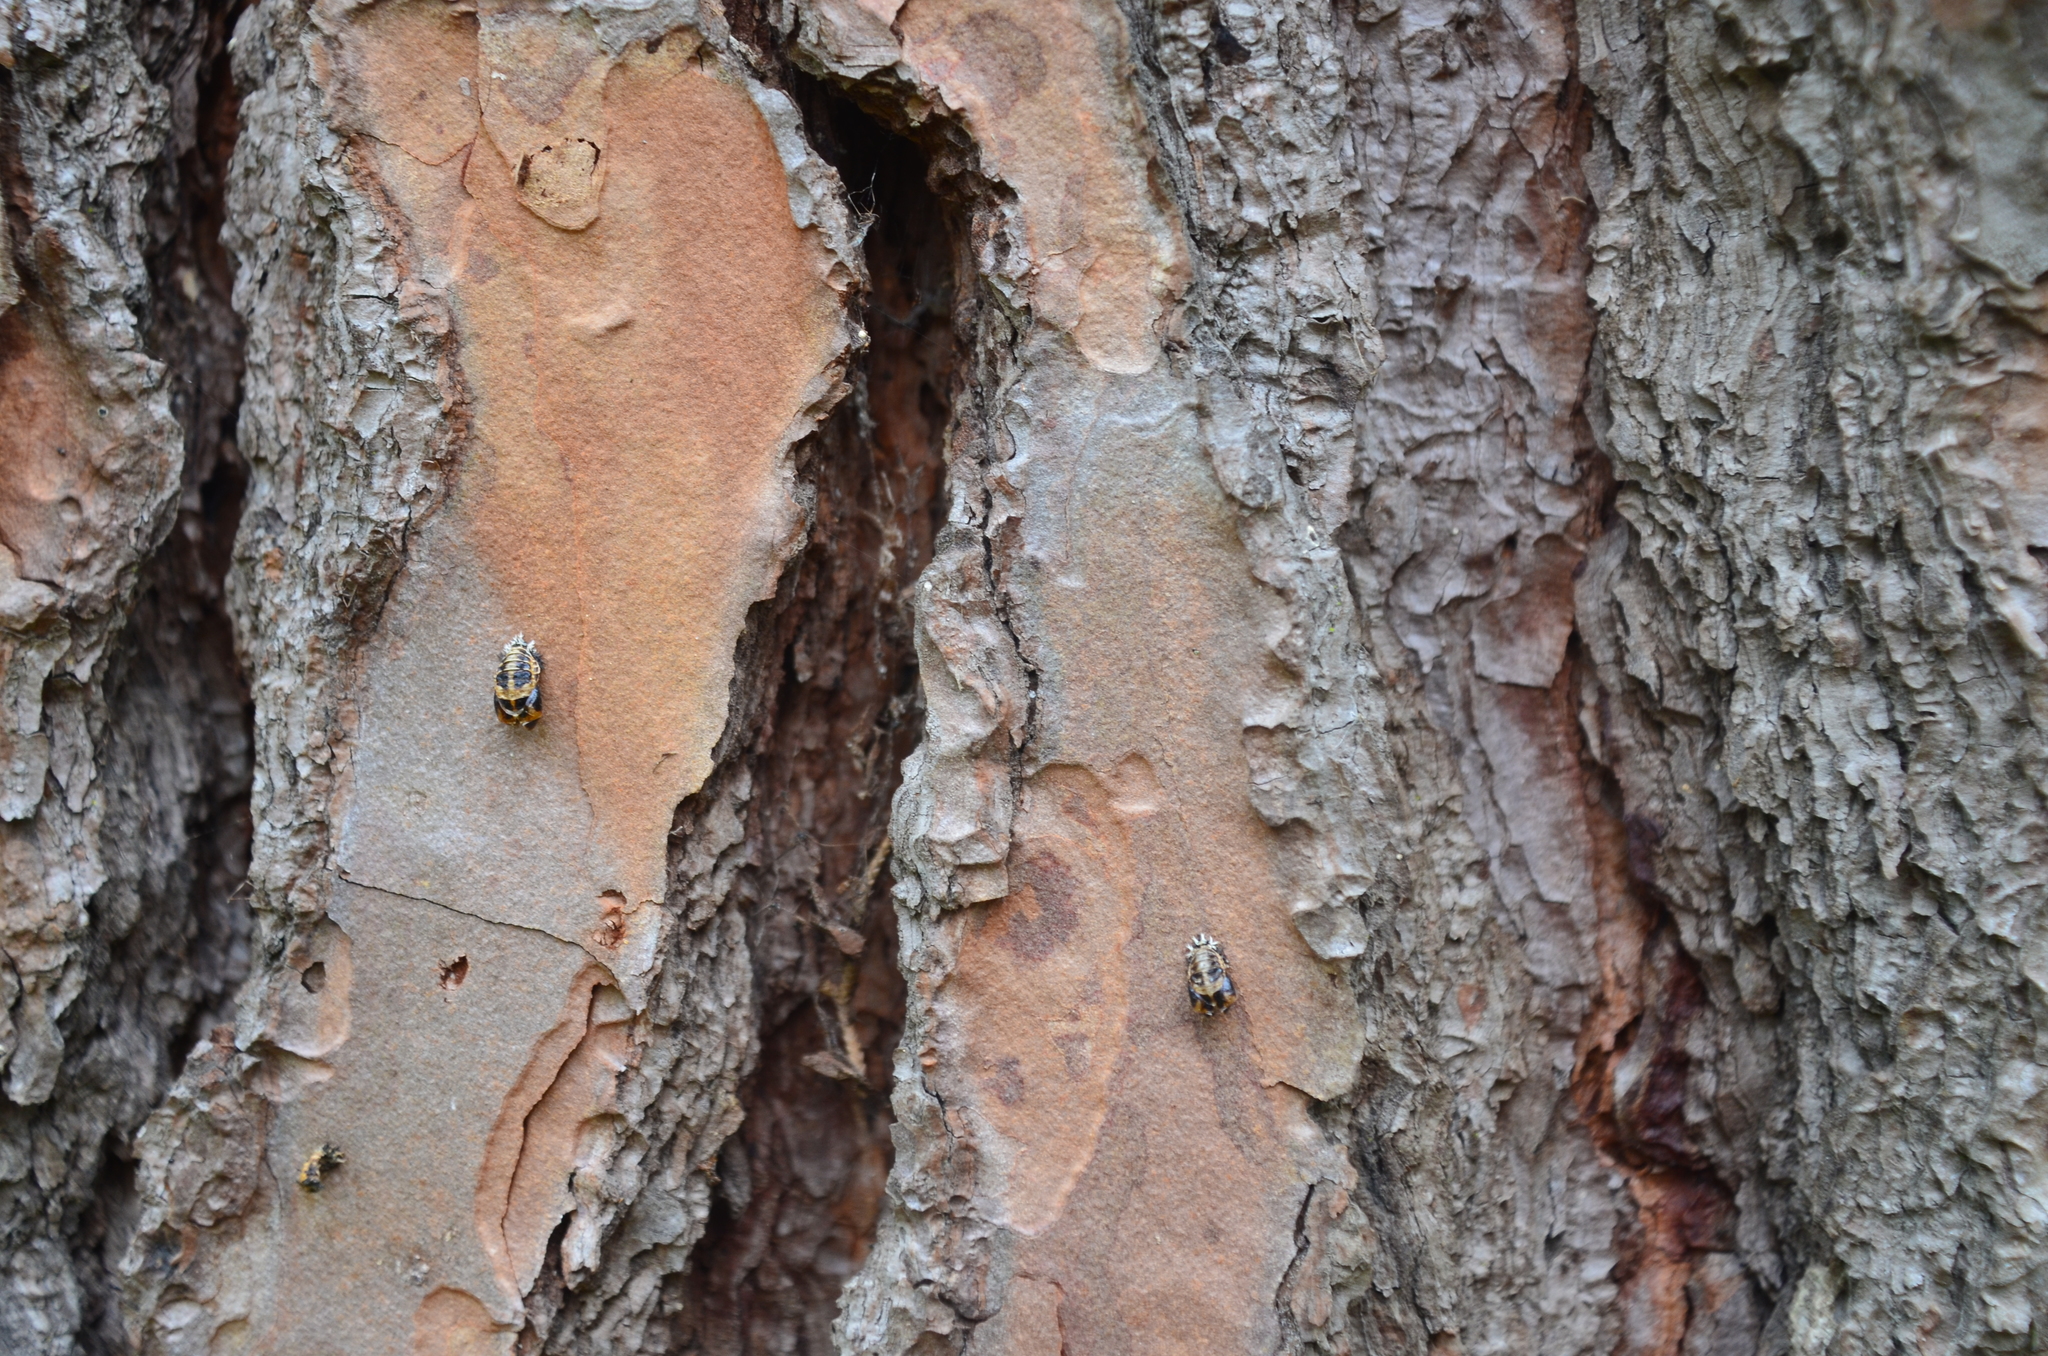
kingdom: Animalia
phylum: Arthropoda
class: Insecta
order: Coleoptera
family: Coccinellidae
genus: Harmonia
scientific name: Harmonia axyridis
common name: Harlequin ladybird
